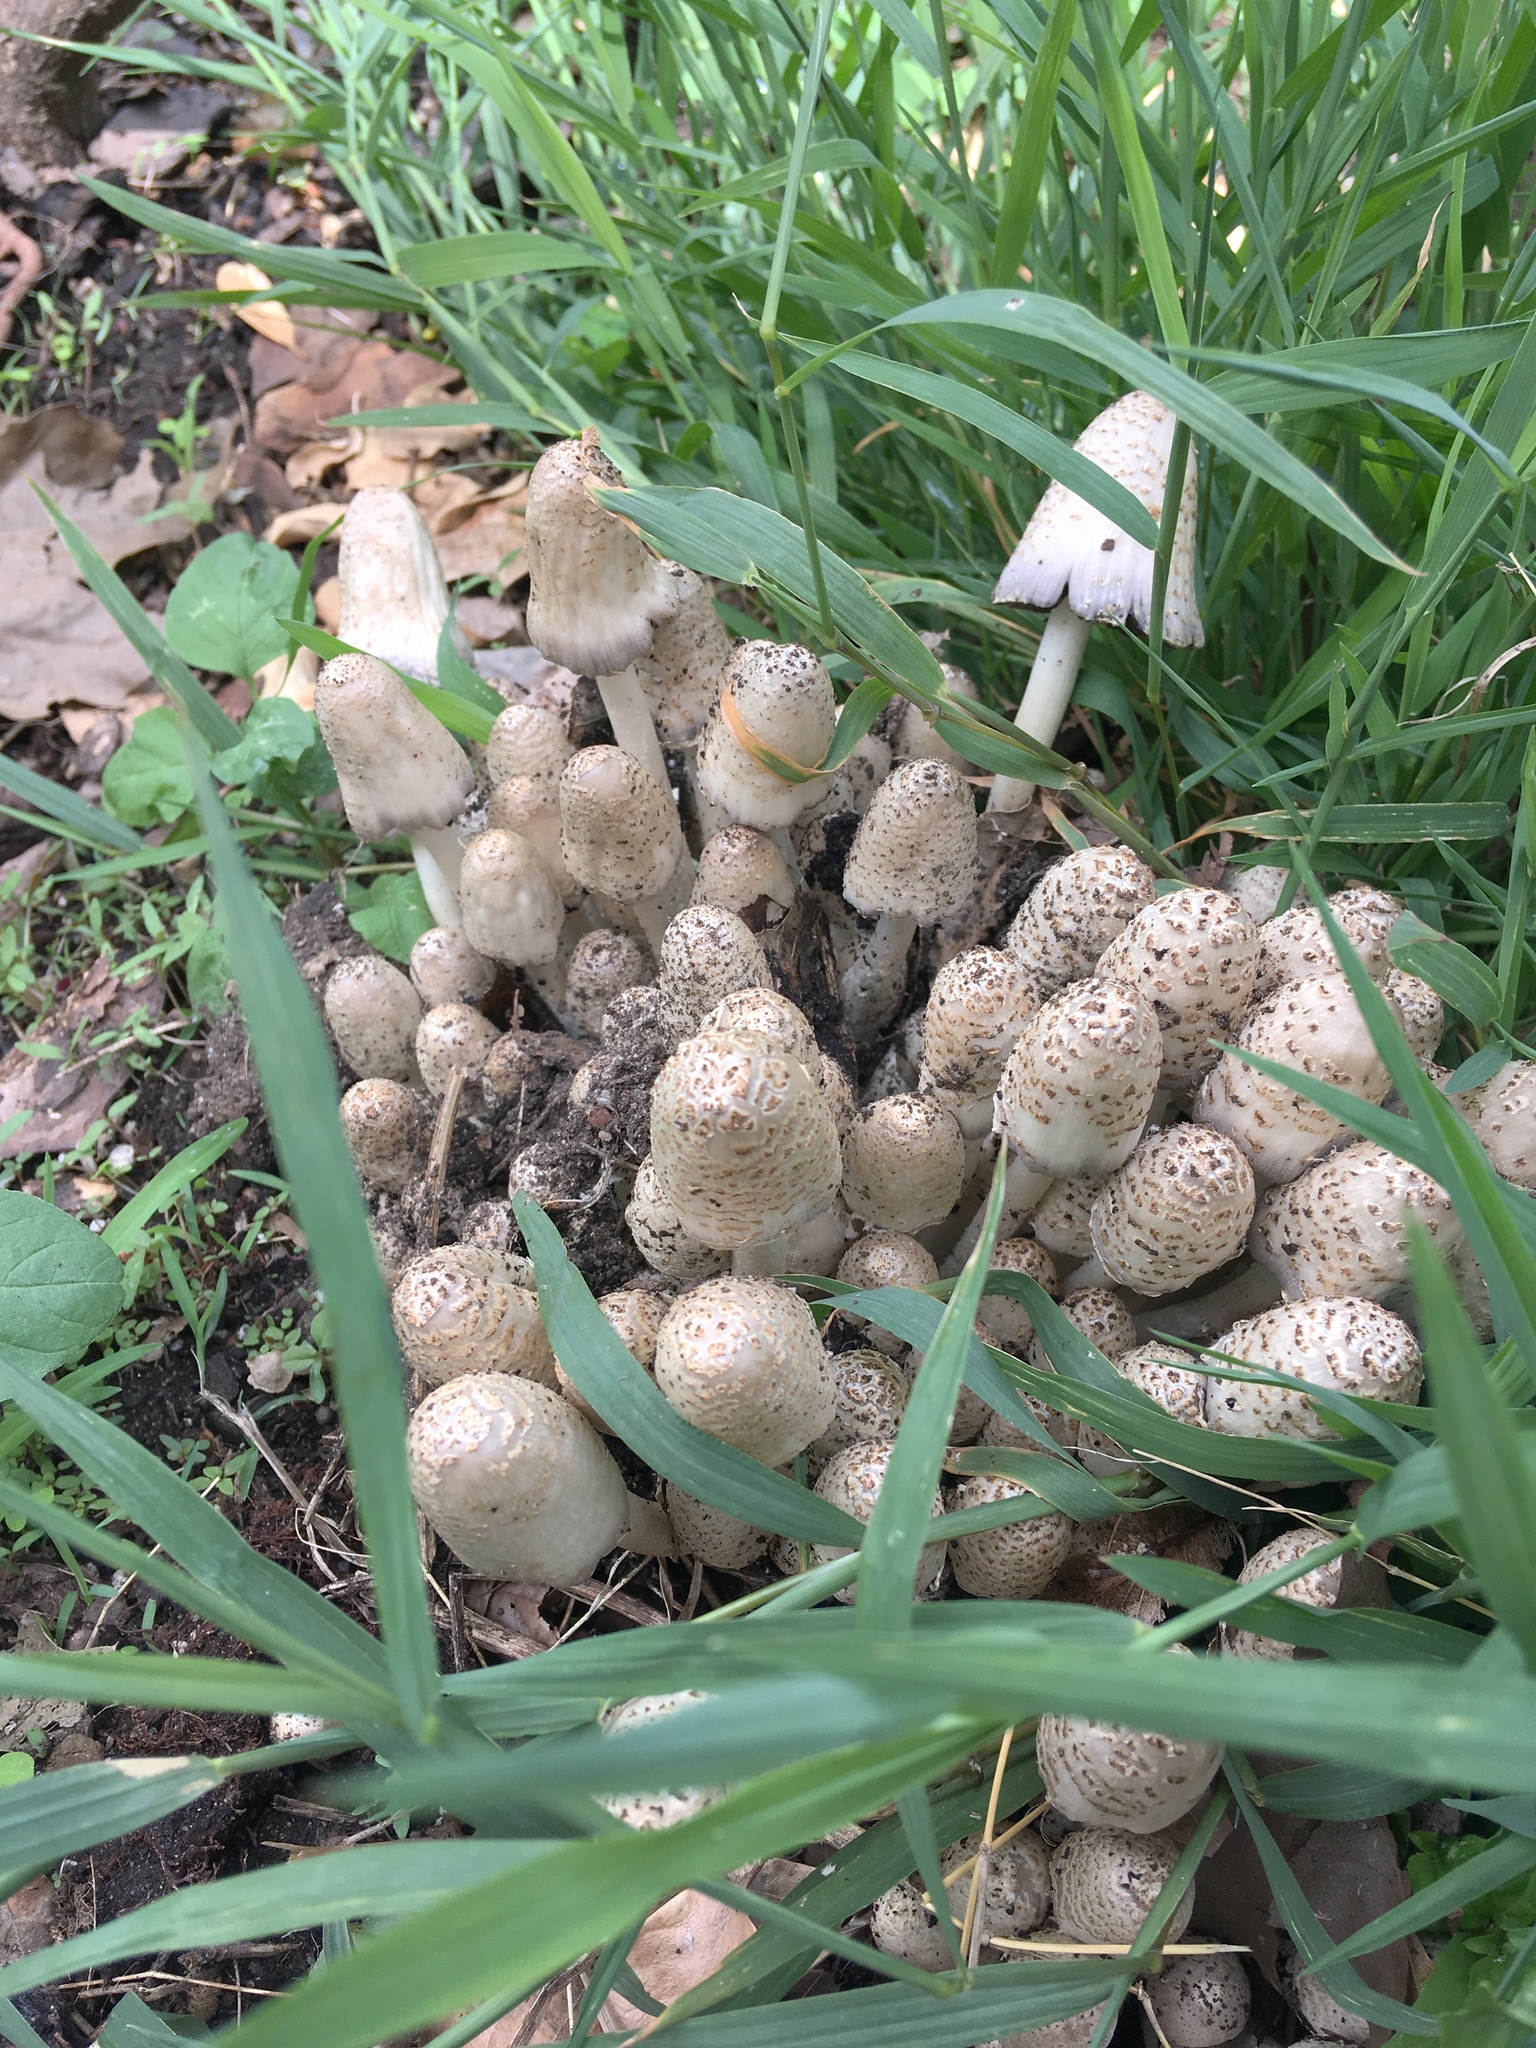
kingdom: Fungi
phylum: Basidiomycota
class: Agaricomycetes
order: Agaricales
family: Psathyrellaceae
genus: Coprinopsis
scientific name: Coprinopsis variegata
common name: Scaly ink cap
